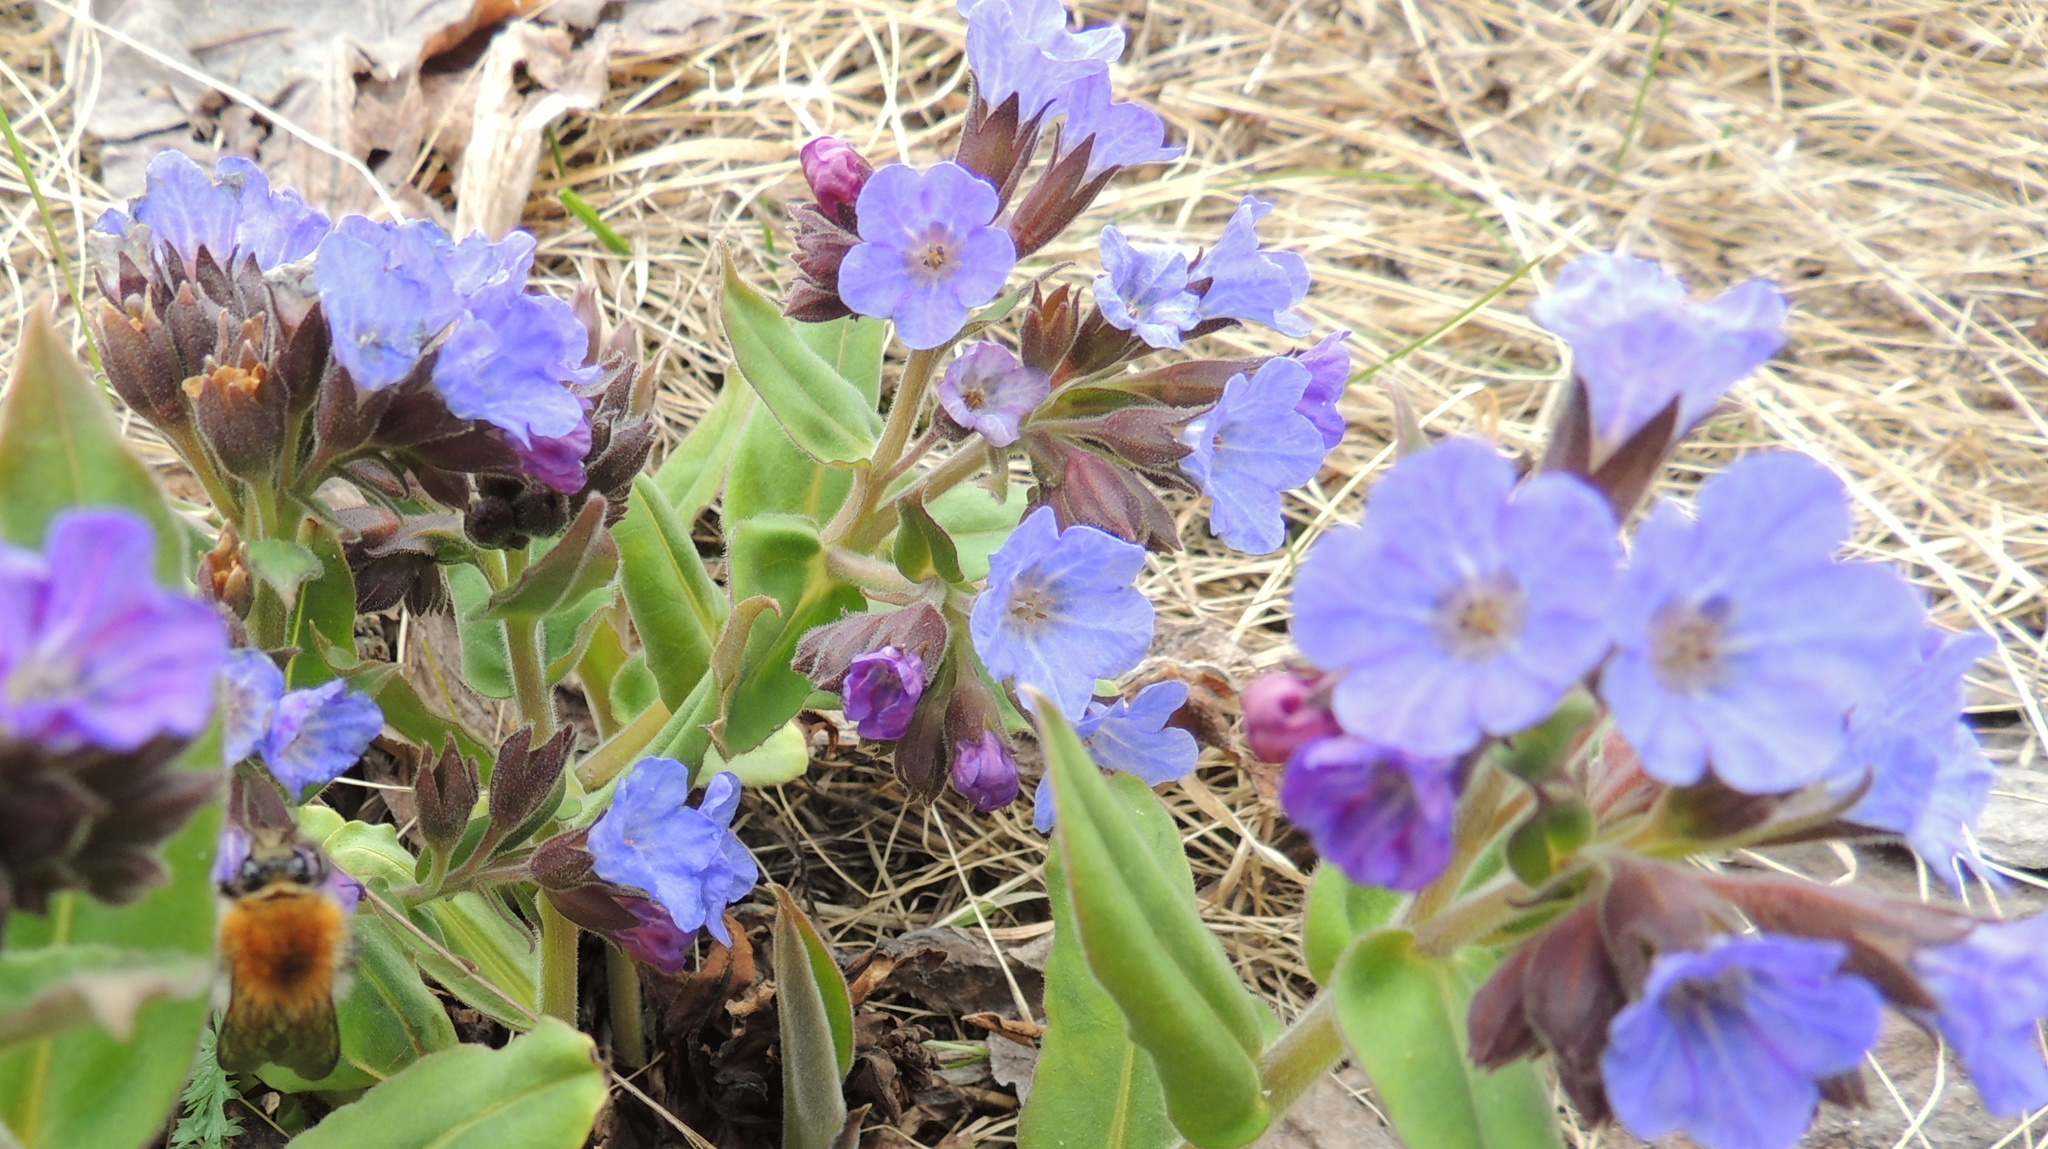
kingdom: Plantae
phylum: Tracheophyta
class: Magnoliopsida
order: Boraginales
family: Boraginaceae
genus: Pulmonaria
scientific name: Pulmonaria mollis
